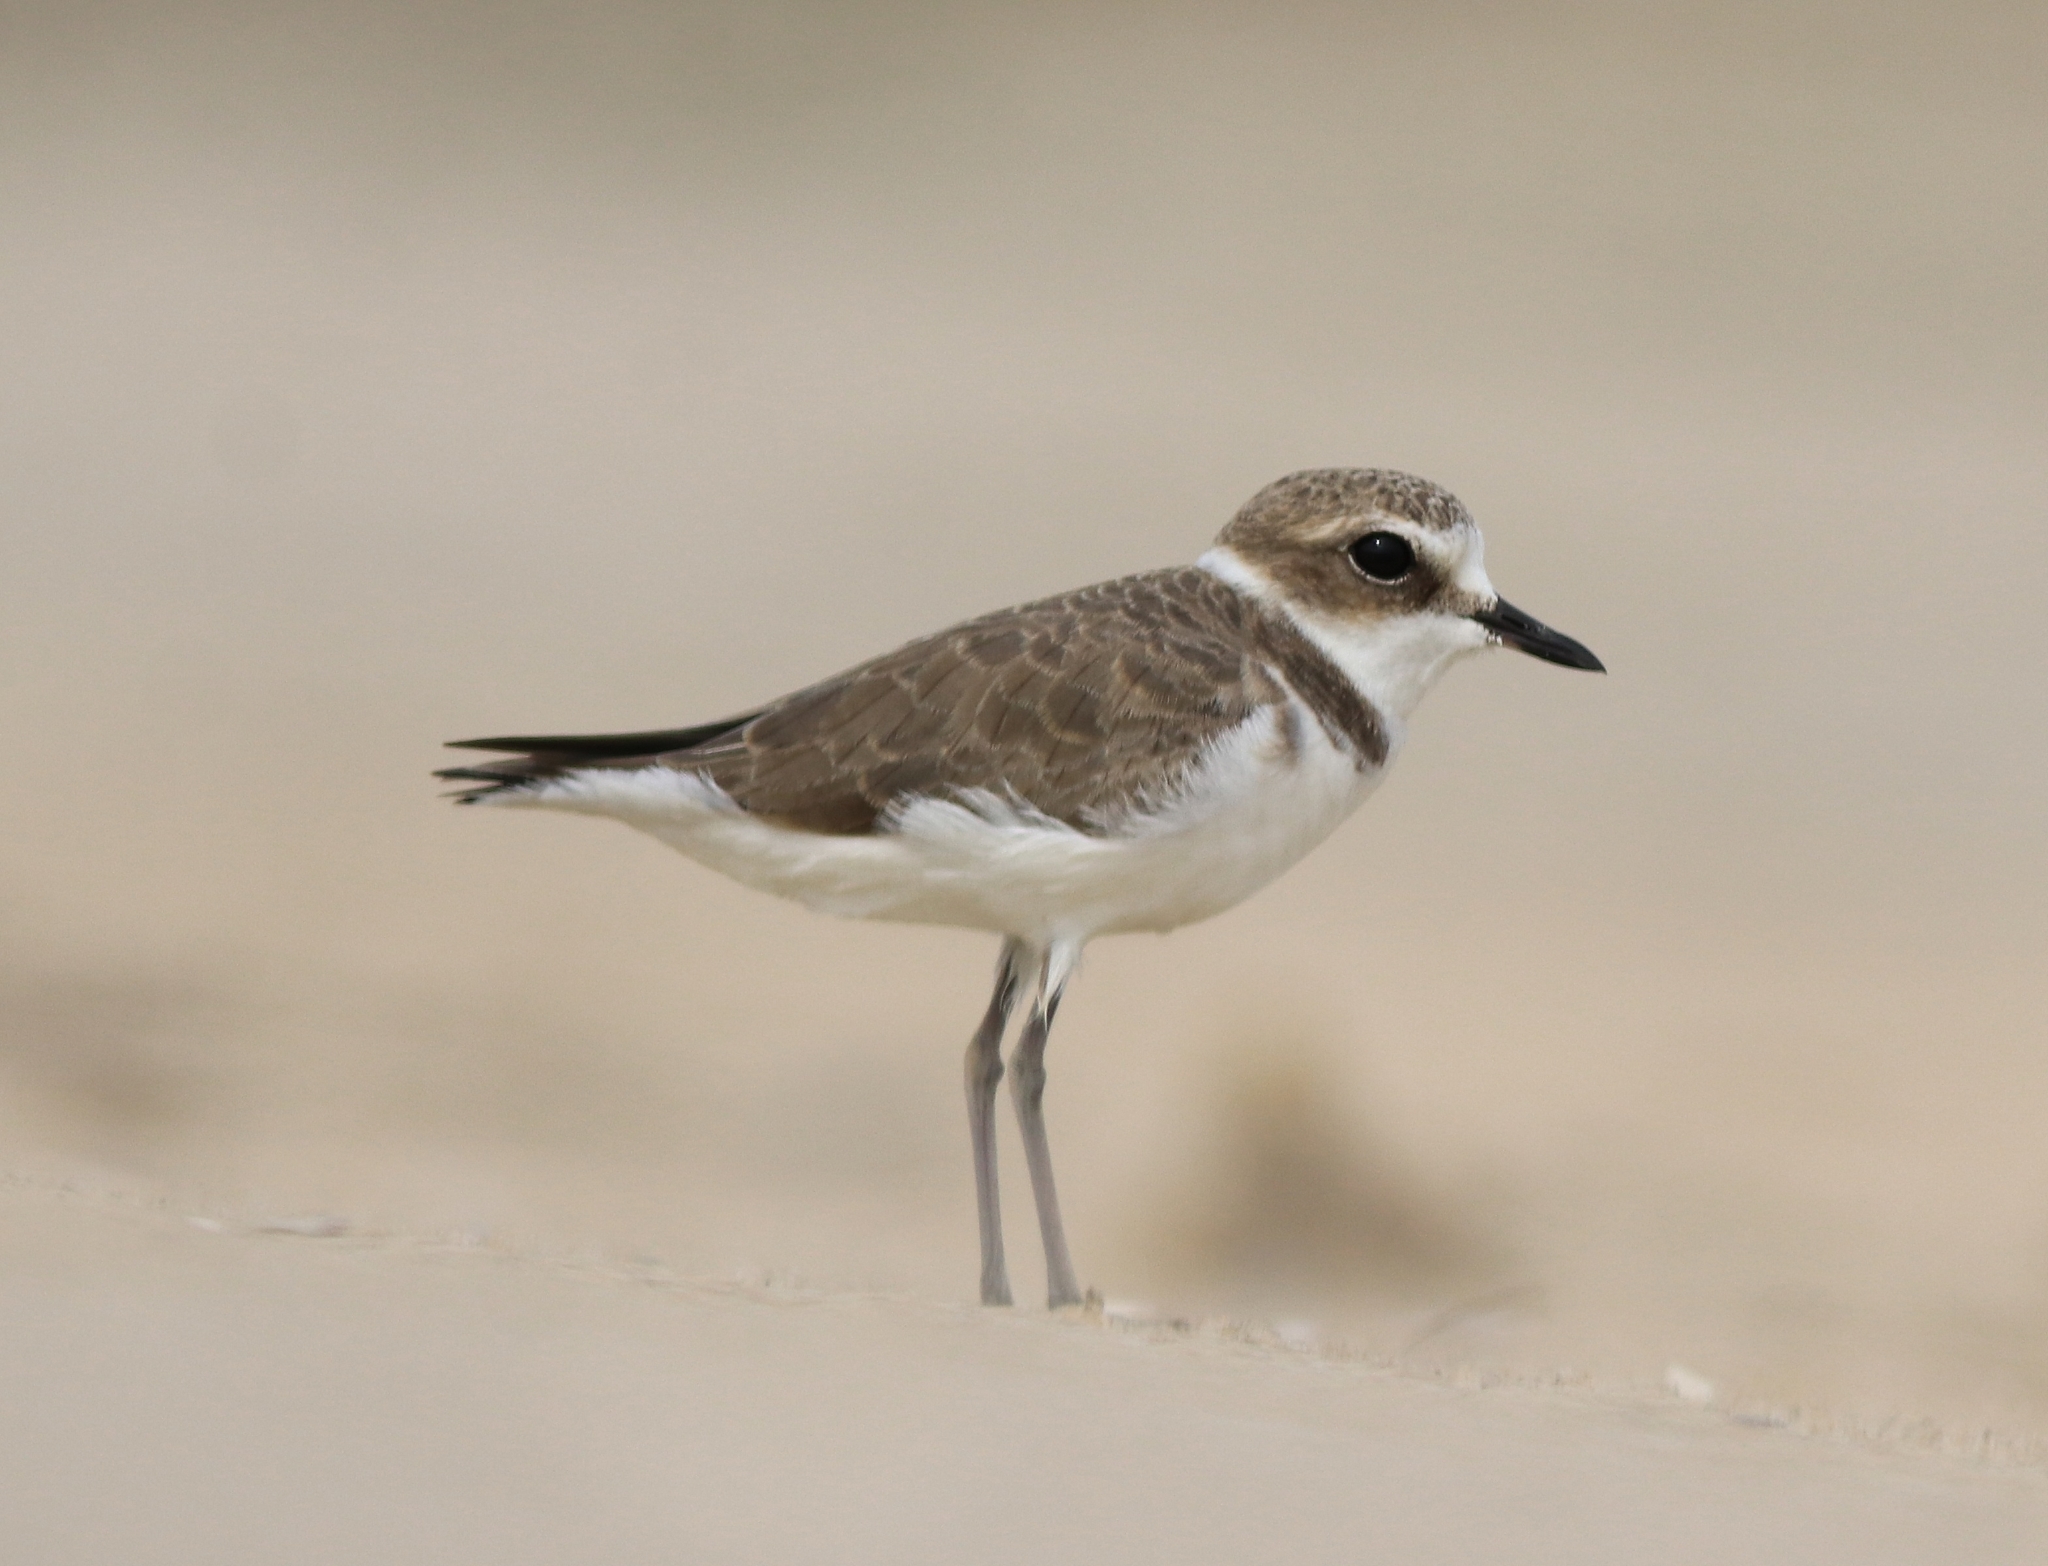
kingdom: Animalia
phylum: Chordata
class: Aves
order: Charadriiformes
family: Charadriidae
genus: Charadrius
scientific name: Charadrius alexandrinus
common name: Kentish plover
